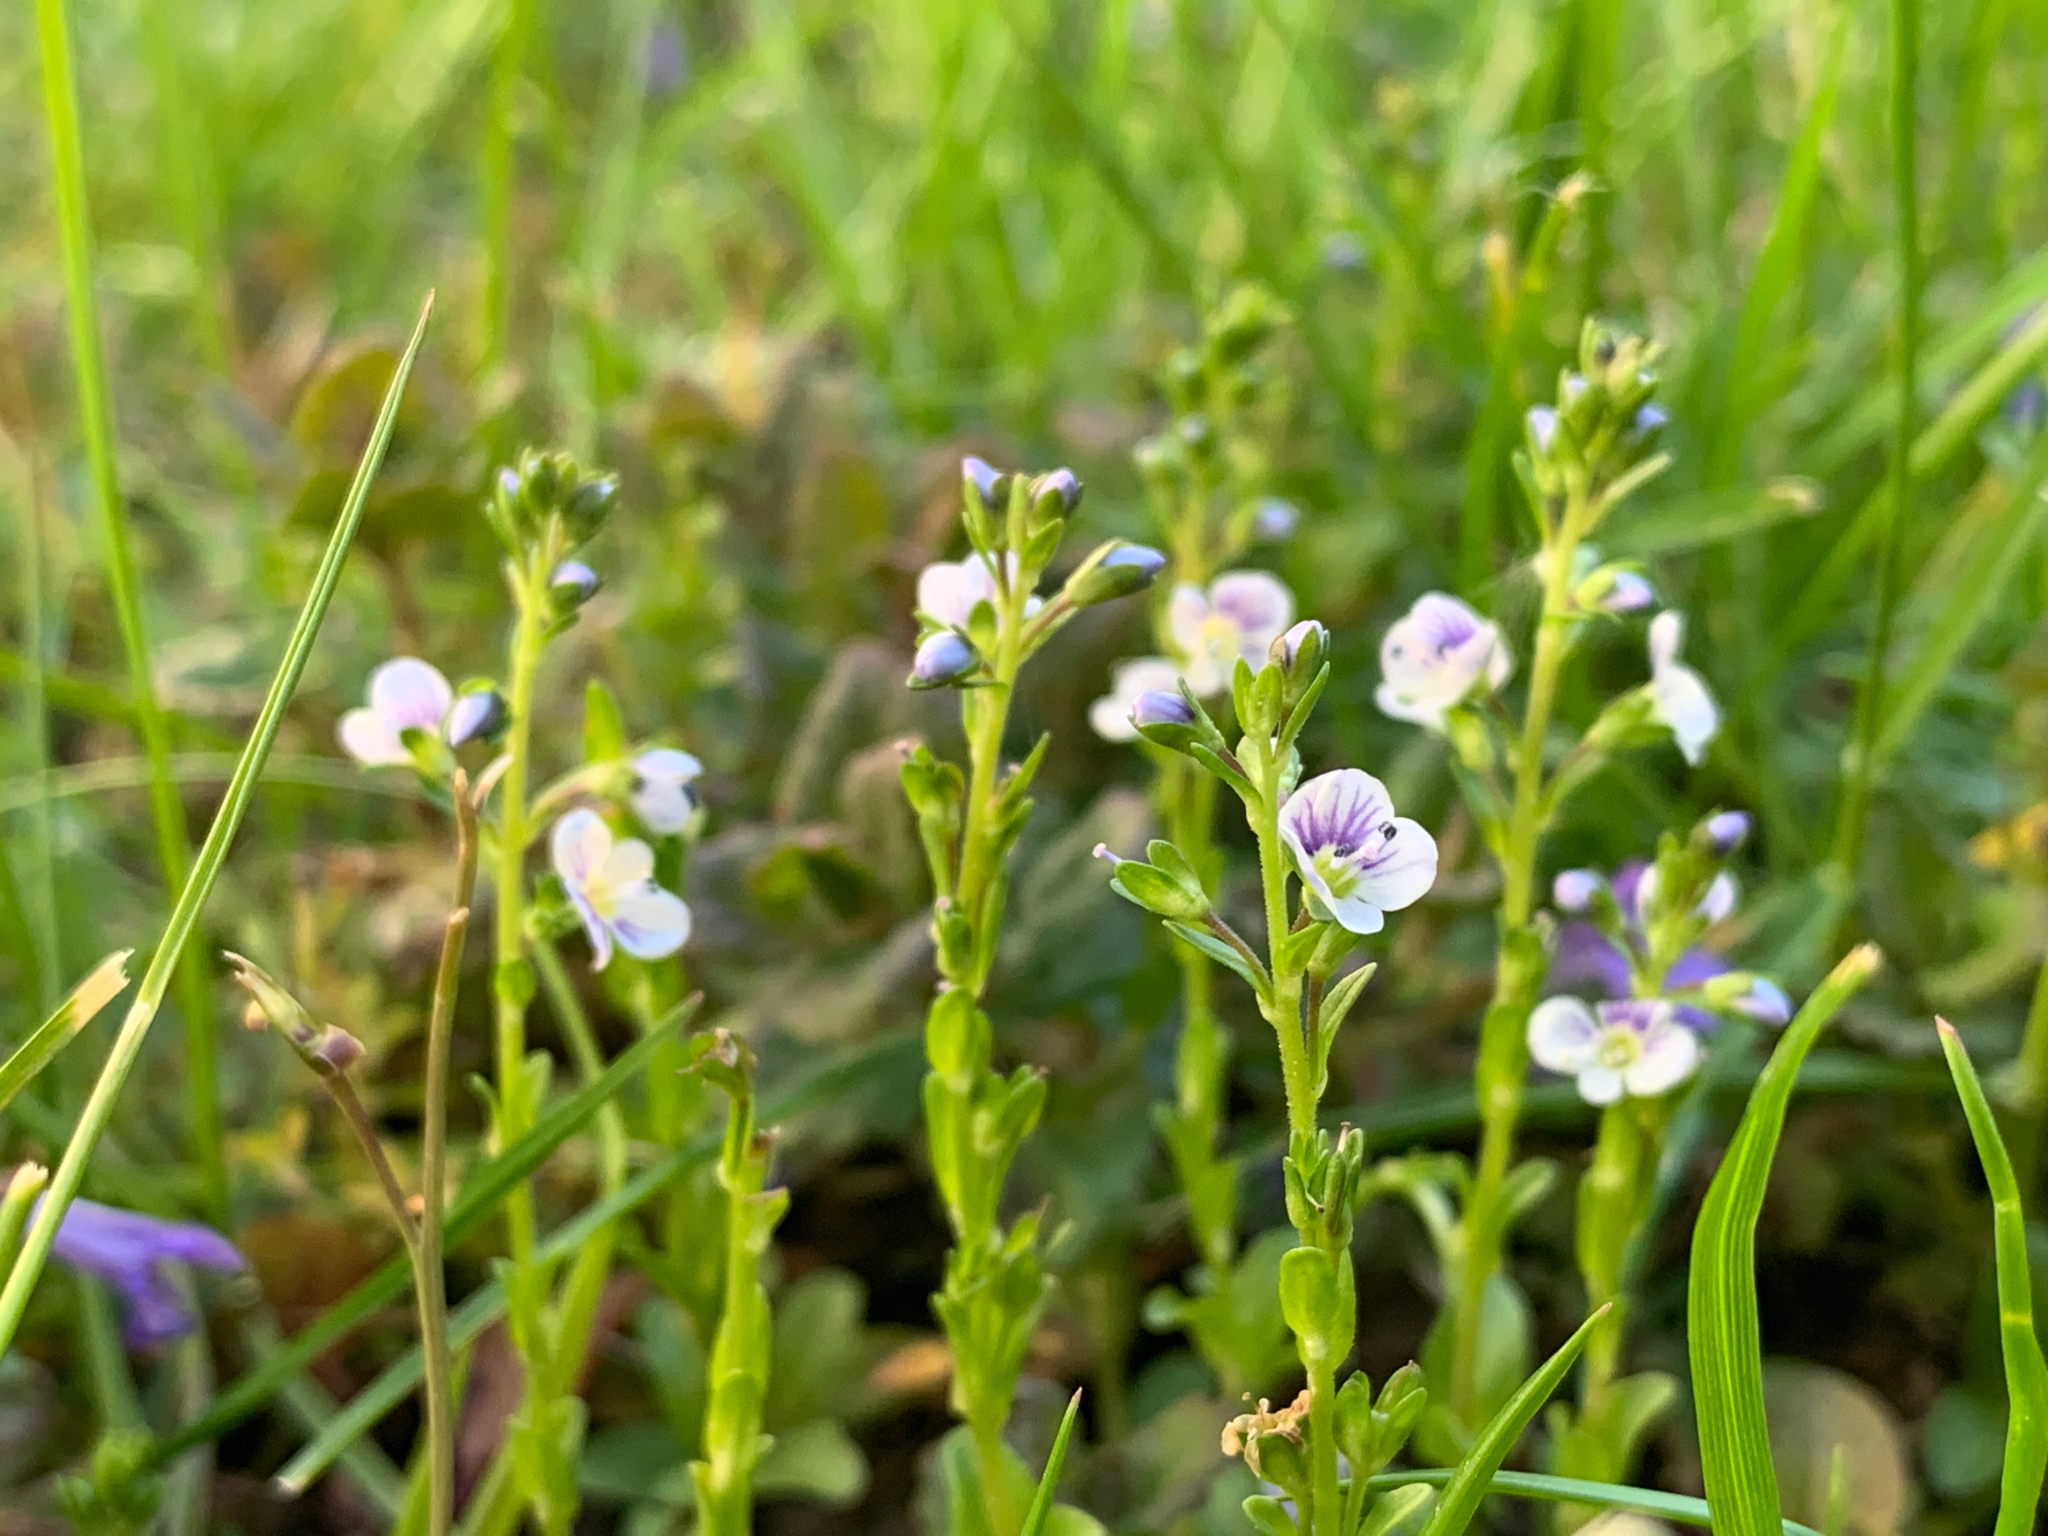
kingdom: Plantae
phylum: Tracheophyta
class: Magnoliopsida
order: Lamiales
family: Plantaginaceae
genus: Veronica
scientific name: Veronica serpyllifolia
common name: Thyme-leaved speedwell
